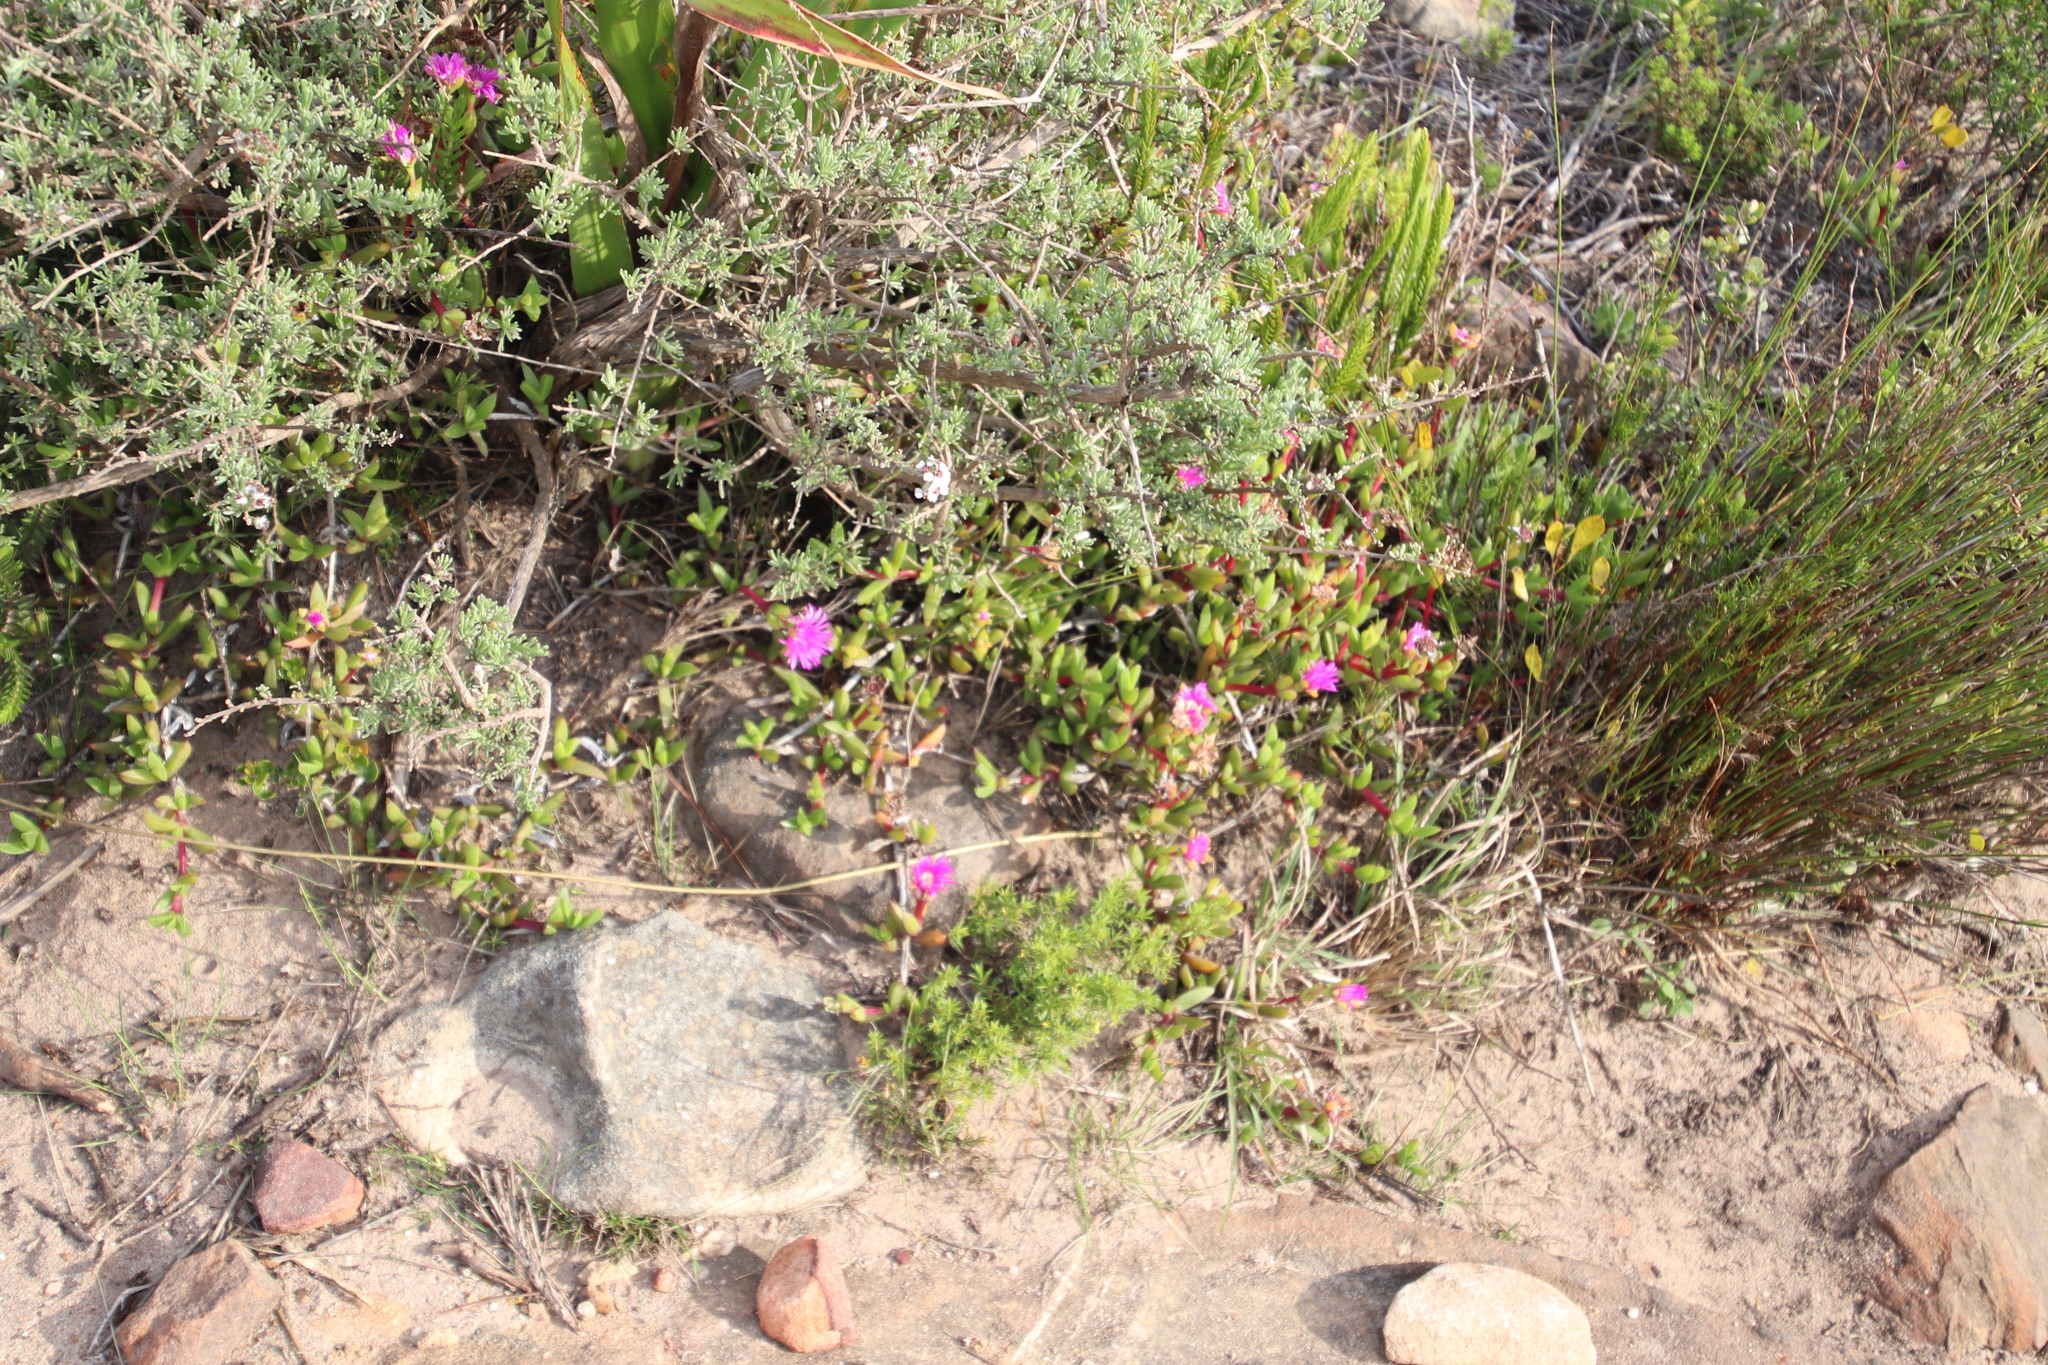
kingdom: Plantae
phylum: Tracheophyta
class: Magnoliopsida
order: Caryophyllales
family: Aizoaceae
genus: Amphibolia
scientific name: Amphibolia laevis
